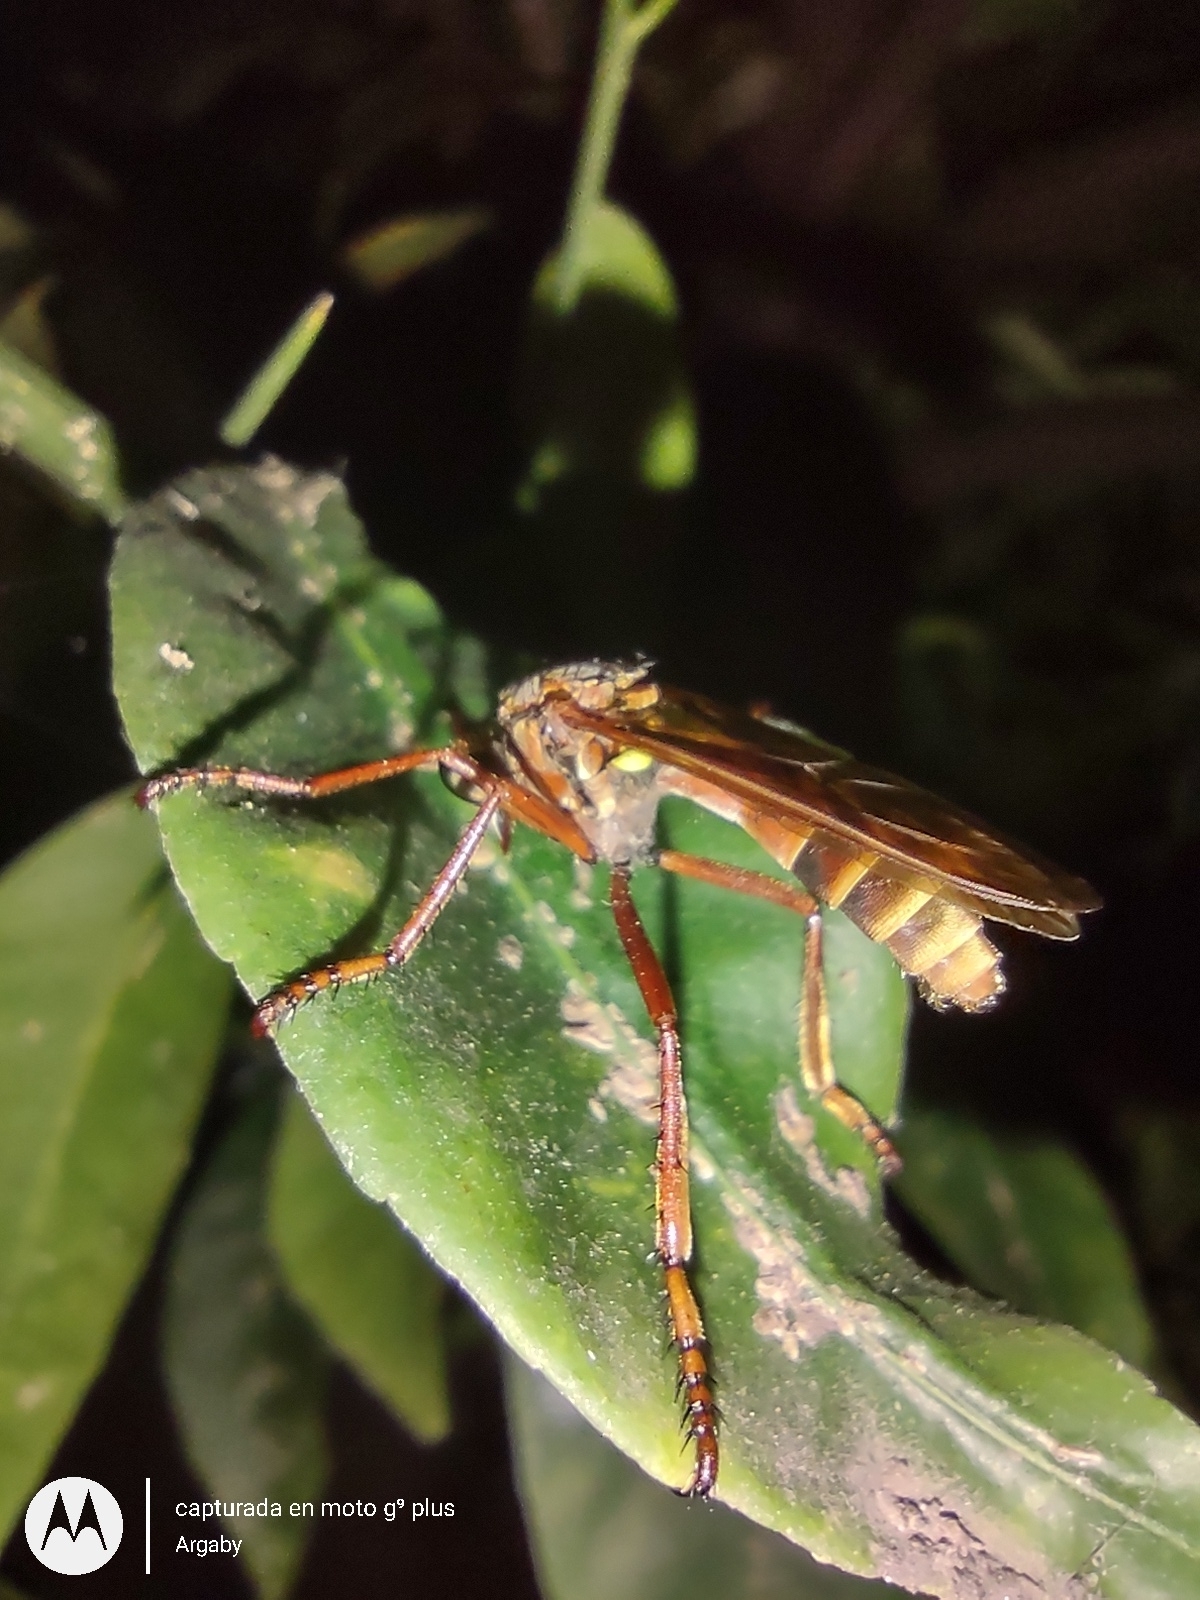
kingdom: Animalia
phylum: Arthropoda
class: Insecta
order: Diptera
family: Asilidae
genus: Blepharepium
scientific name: Blepharepium cajennense
